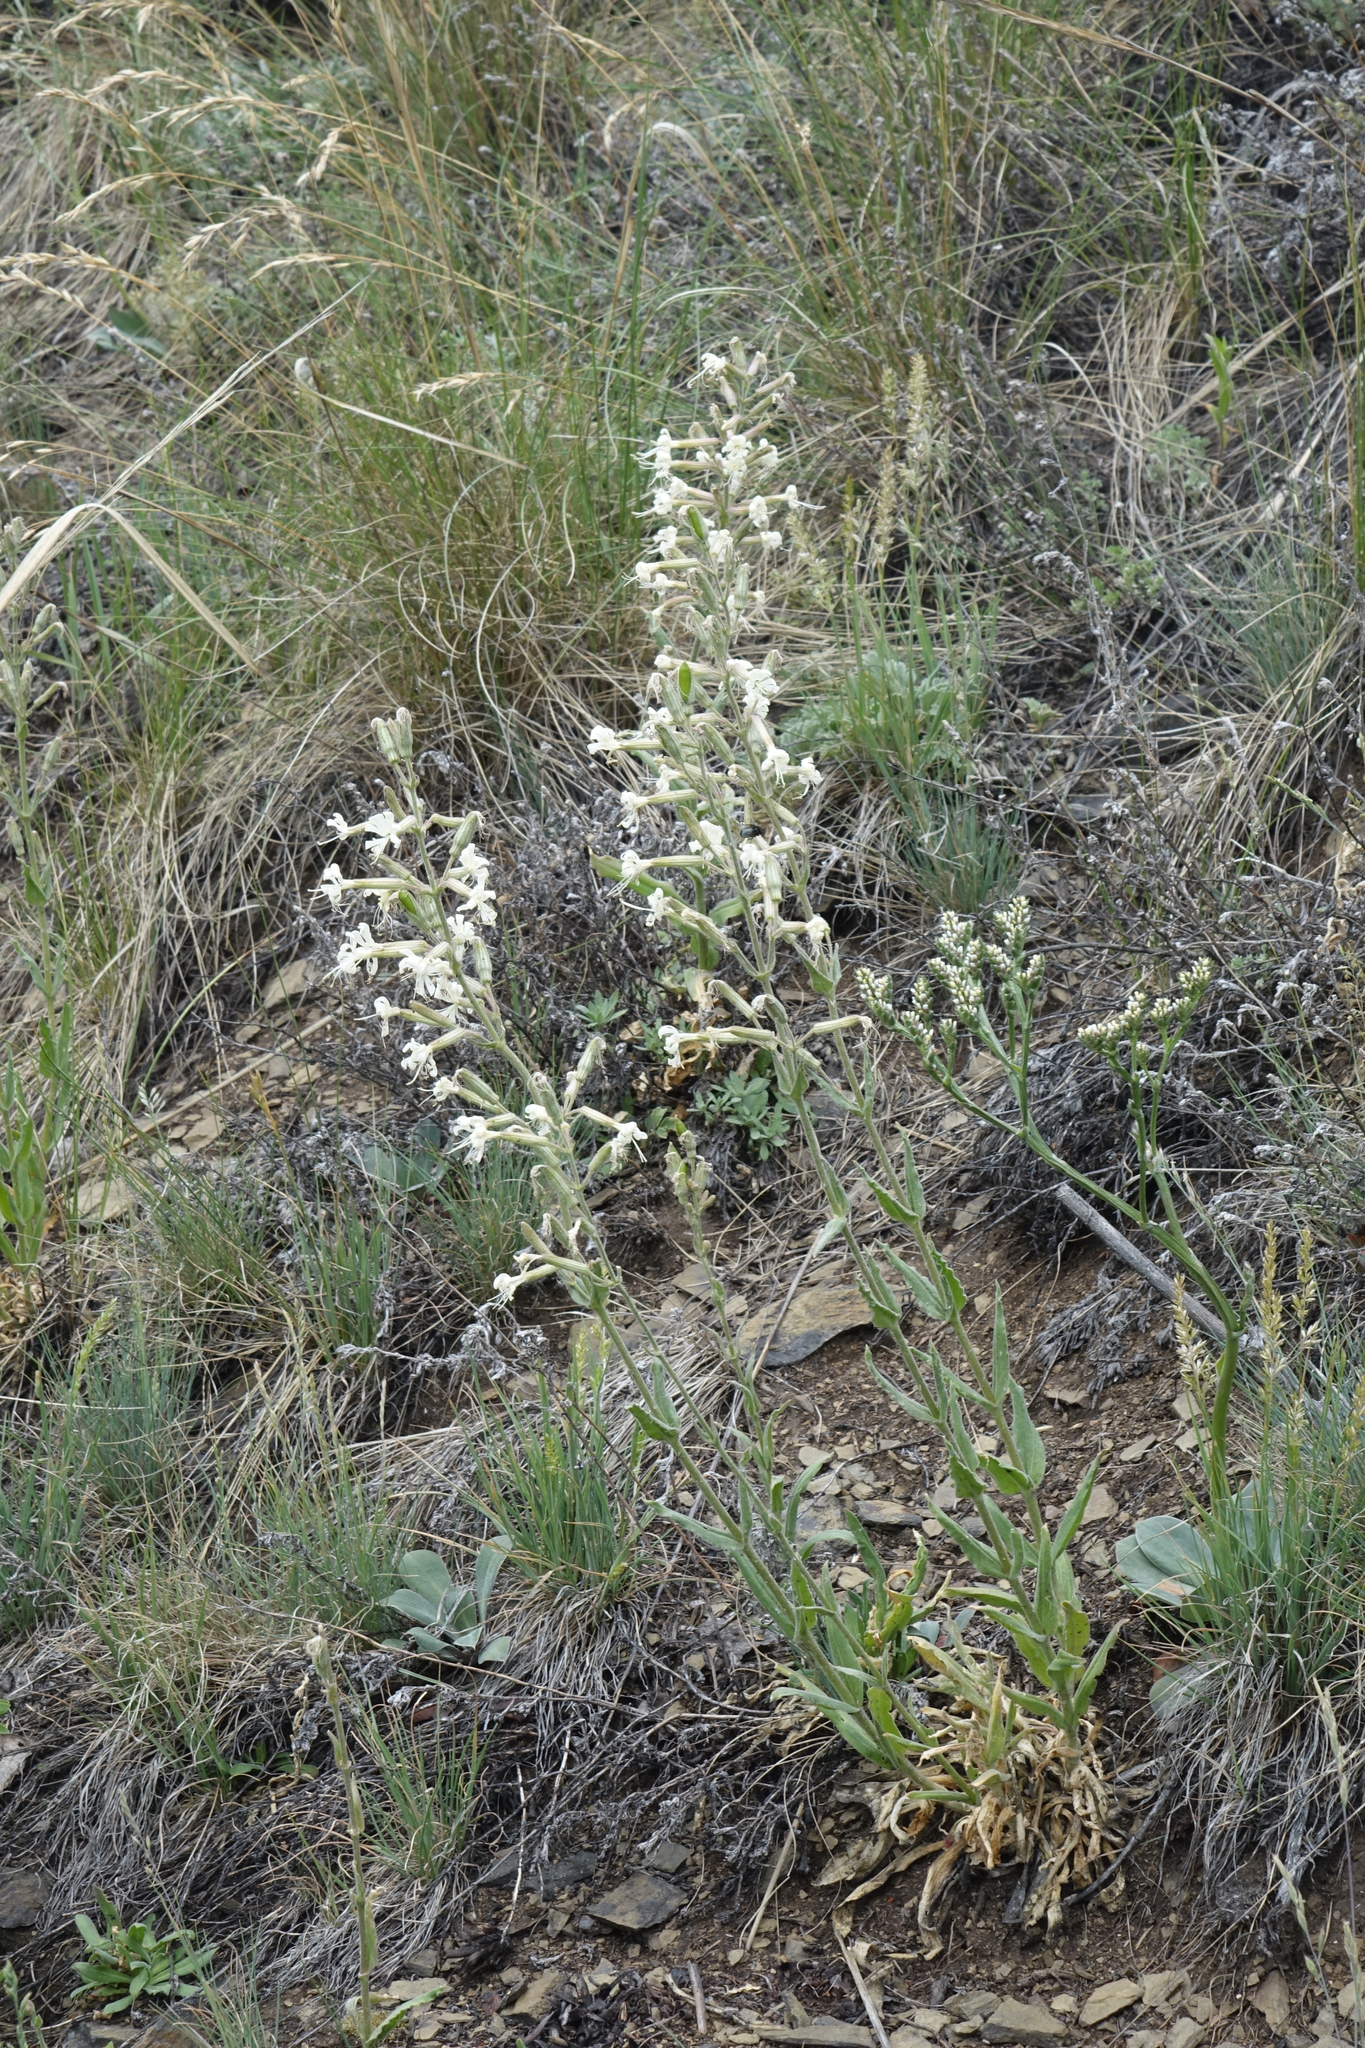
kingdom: Plantae
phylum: Tracheophyta
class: Magnoliopsida
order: Caryophyllales
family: Caryophyllaceae
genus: Silene
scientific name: Silene viscosa
